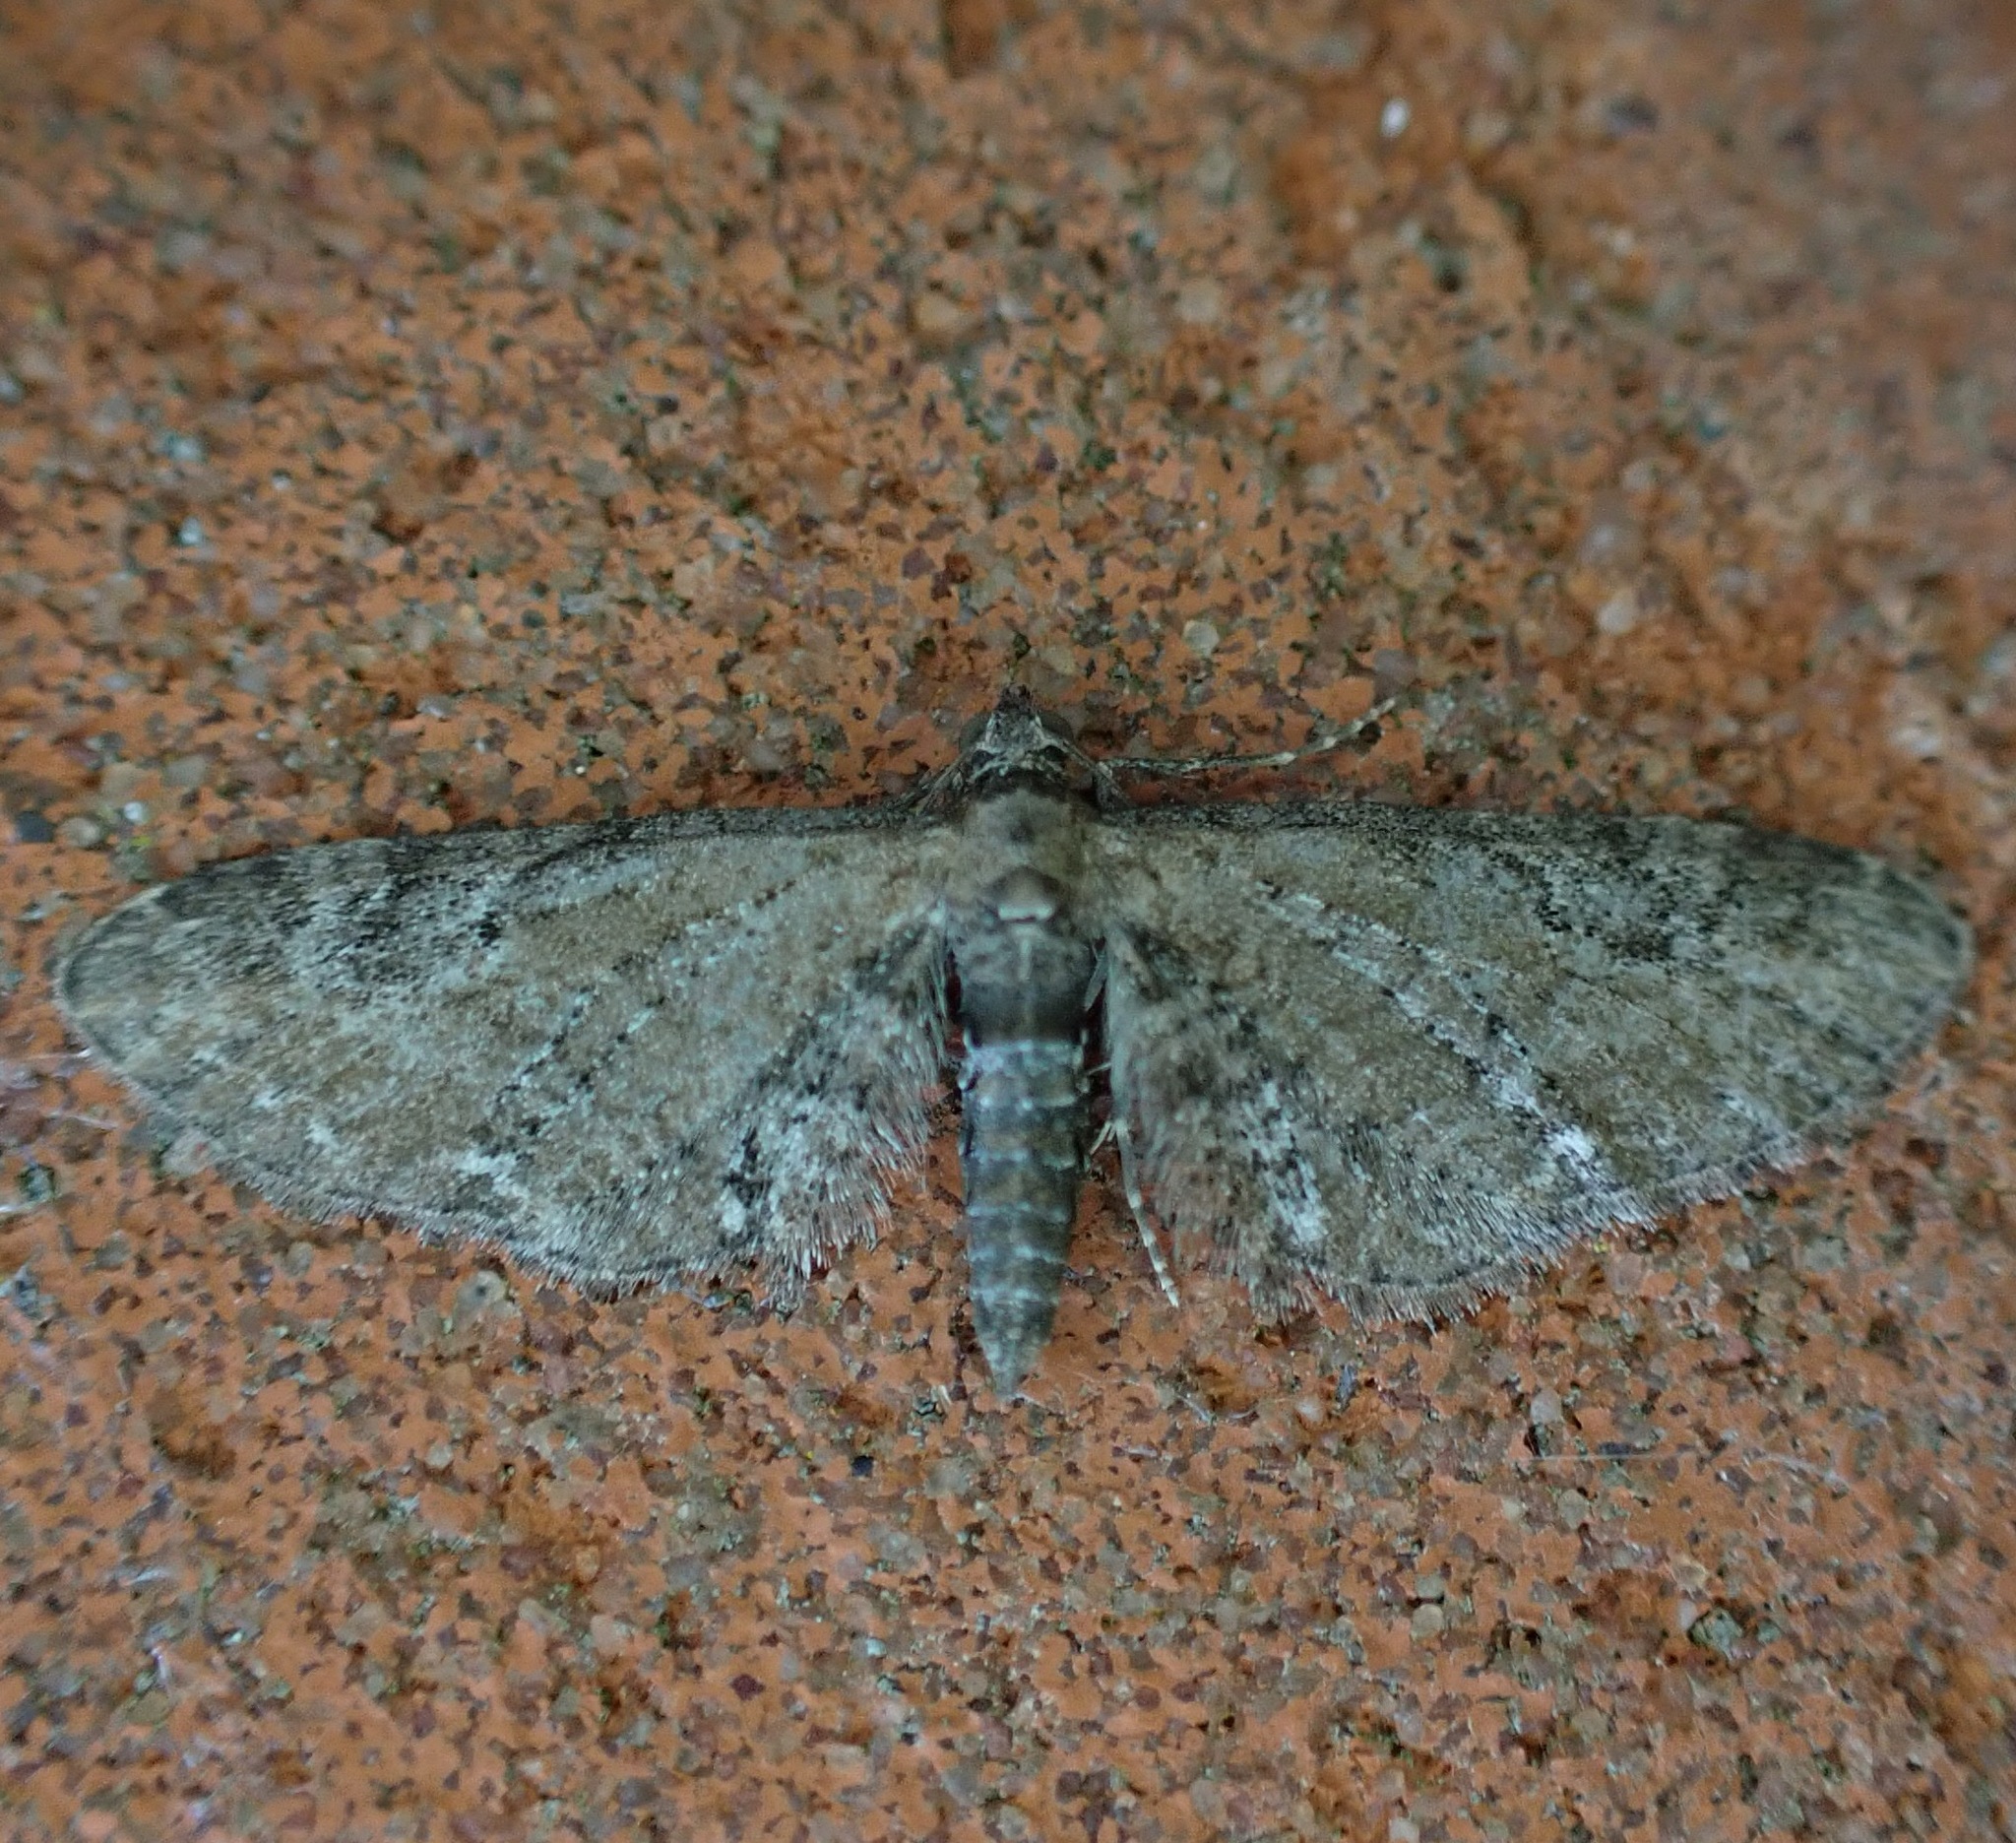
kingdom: Animalia
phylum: Arthropoda
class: Insecta
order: Lepidoptera
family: Geometridae
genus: Eupithecia
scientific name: Eupithecia vulgata
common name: Common pug
